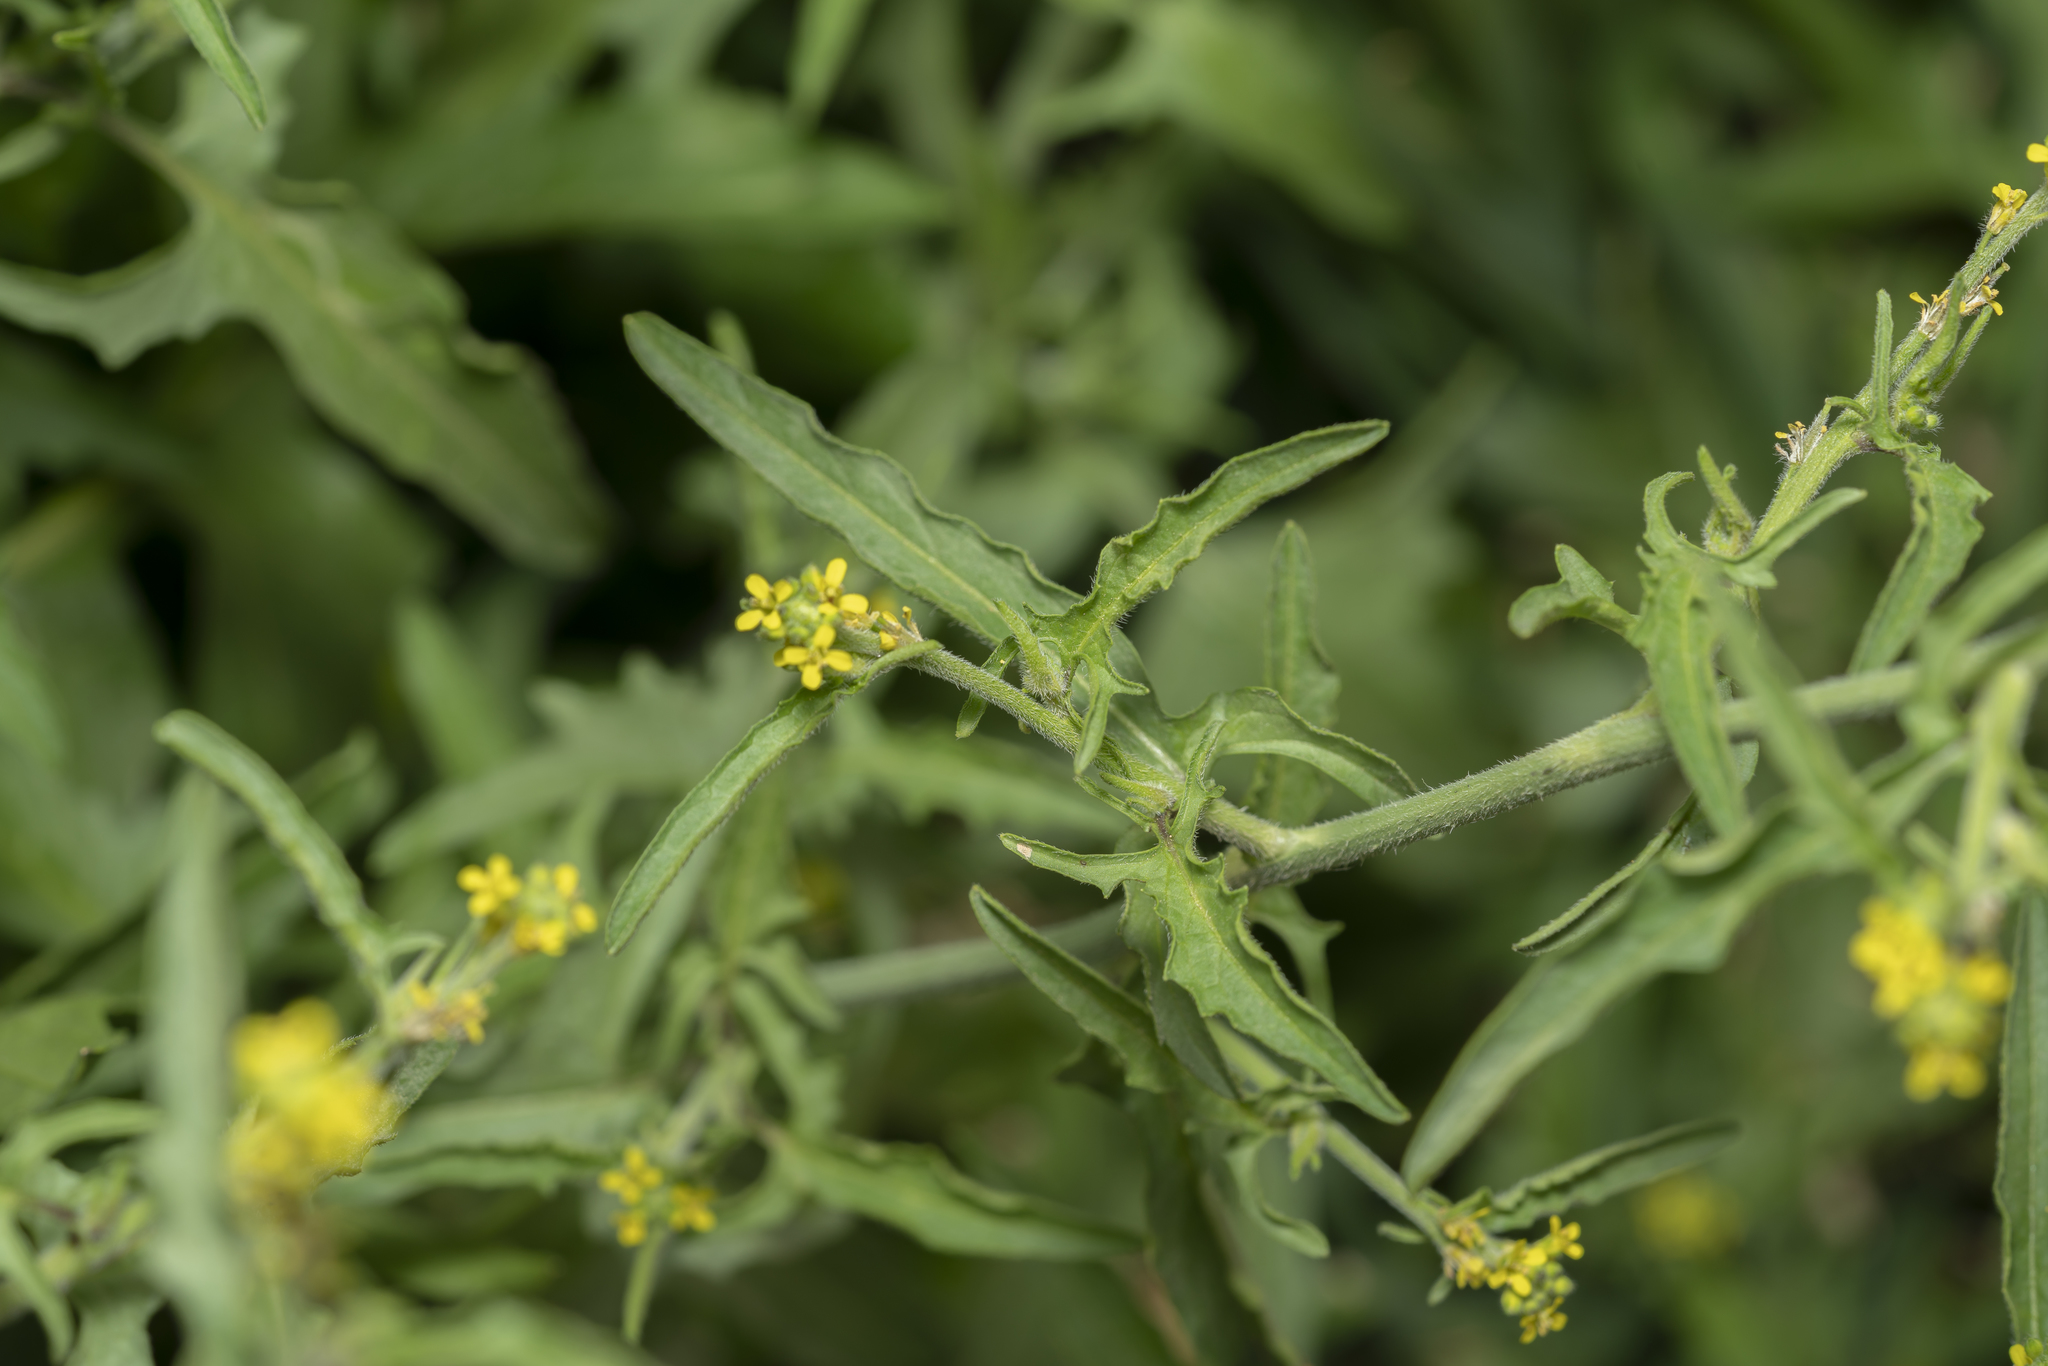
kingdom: Plantae
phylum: Tracheophyta
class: Magnoliopsida
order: Brassicales
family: Brassicaceae
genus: Sisymbrium
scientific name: Sisymbrium officinale
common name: Hedge mustard
